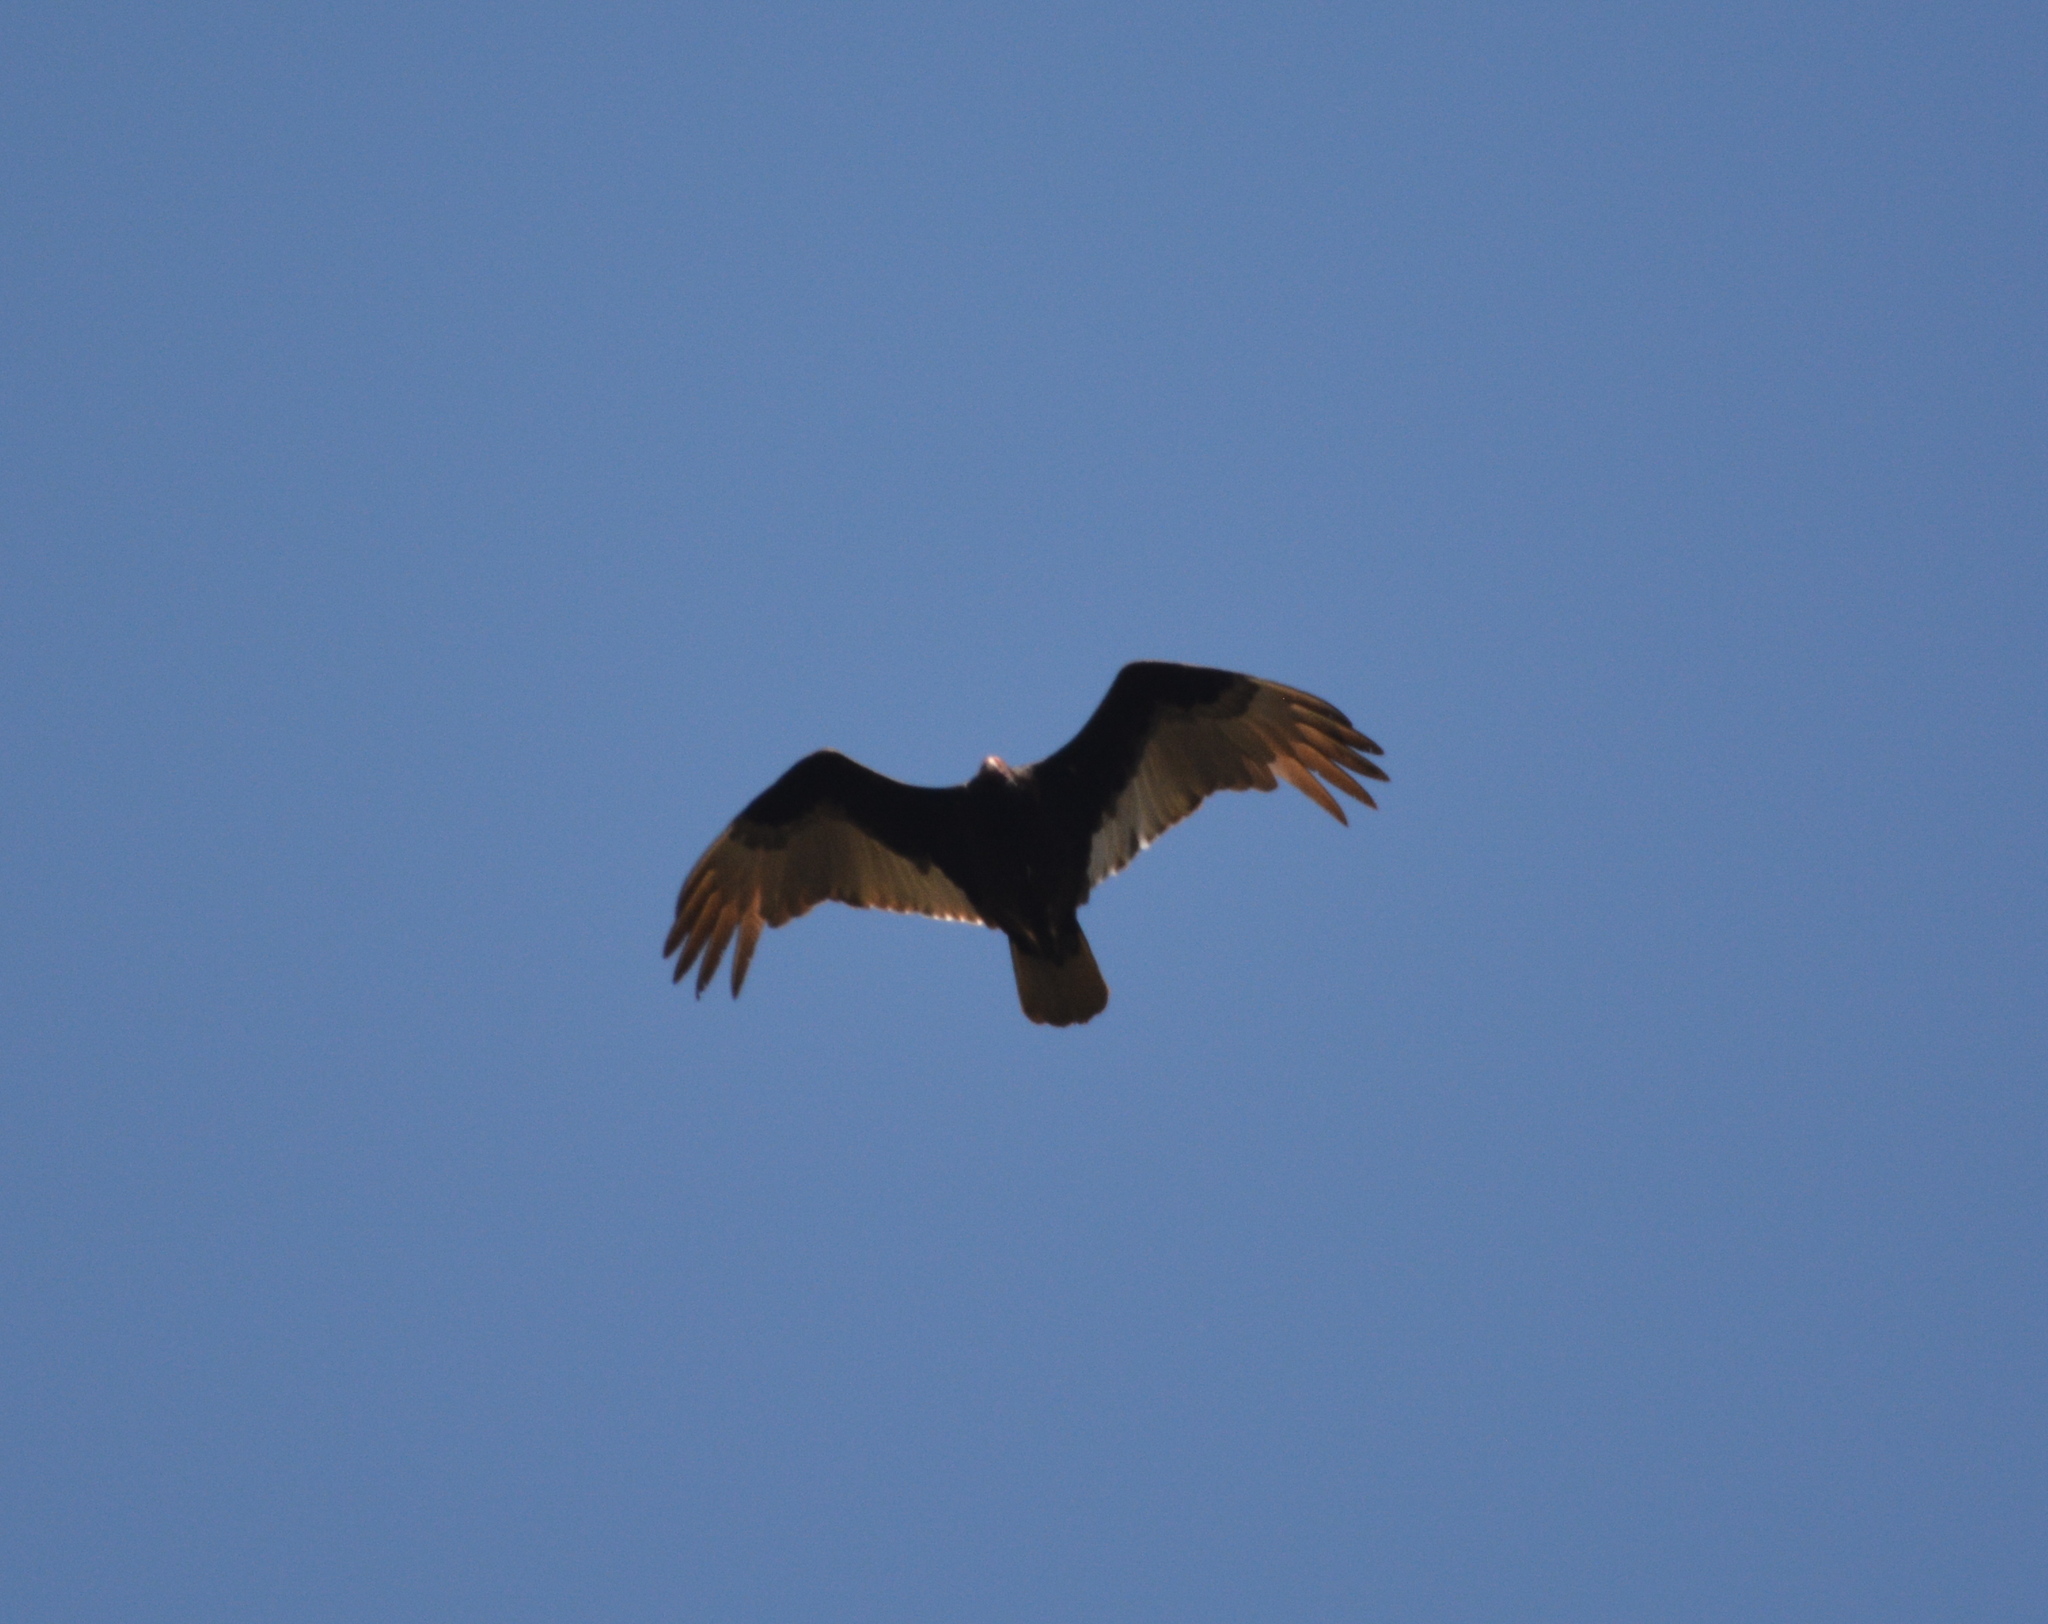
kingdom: Animalia
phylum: Chordata
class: Aves
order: Accipitriformes
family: Cathartidae
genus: Cathartes
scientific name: Cathartes aura
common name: Turkey vulture
